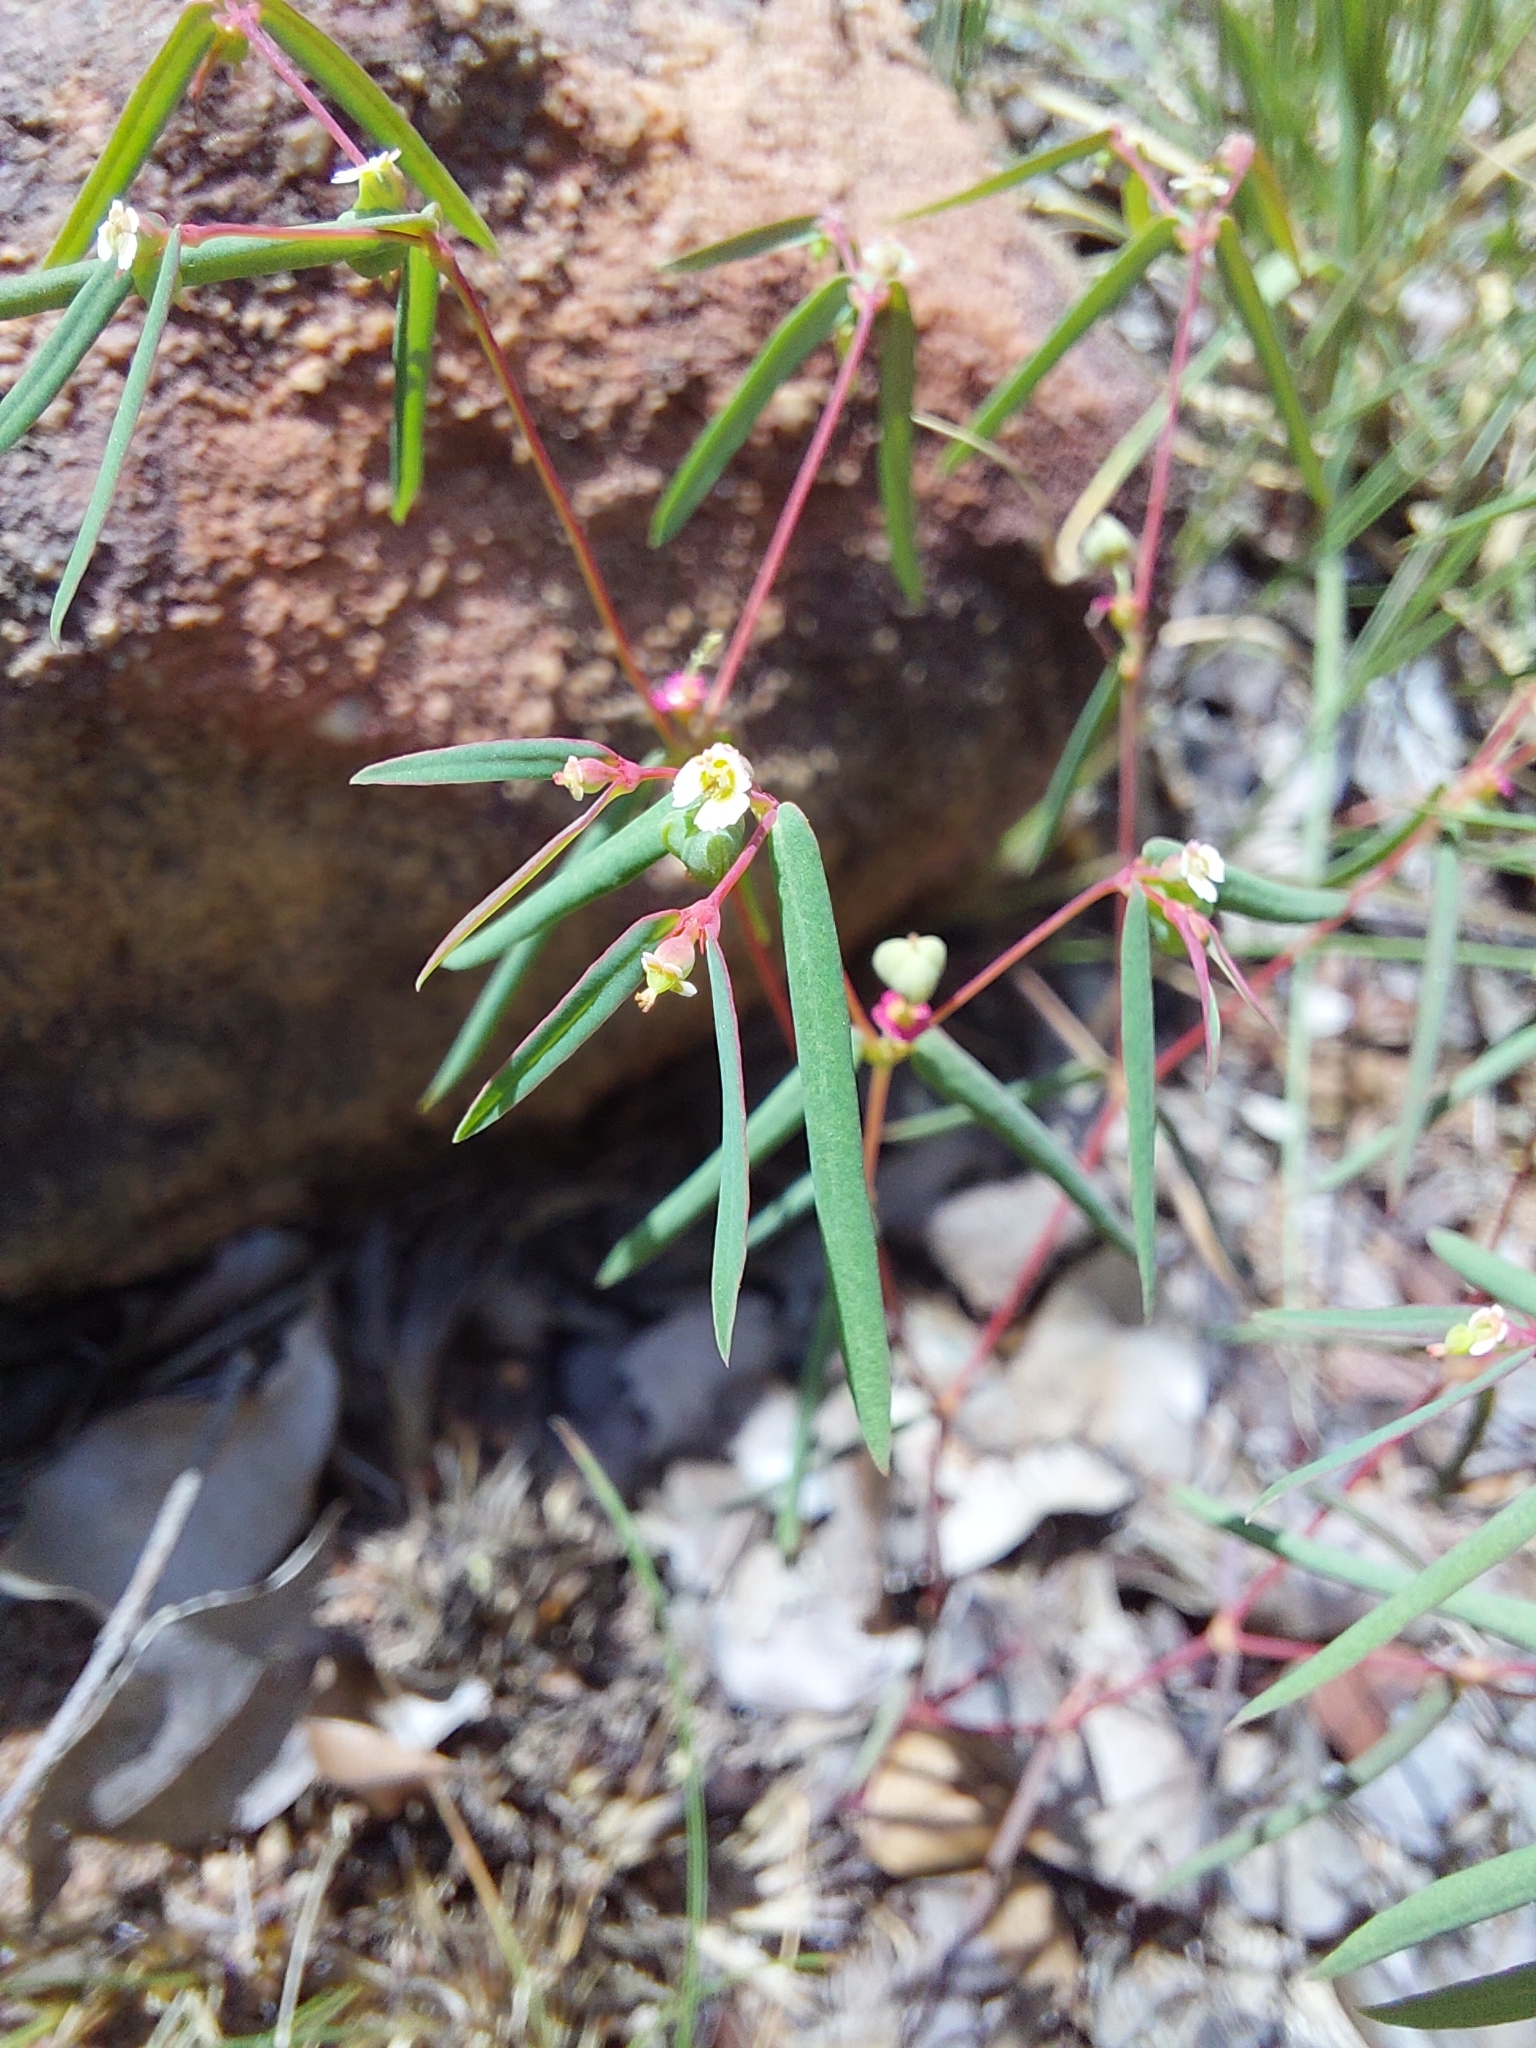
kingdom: Plantae
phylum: Tracheophyta
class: Magnoliopsida
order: Malpighiales
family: Euphorbiaceae
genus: Euphorbia
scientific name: Euphorbia neopolycnemoides
